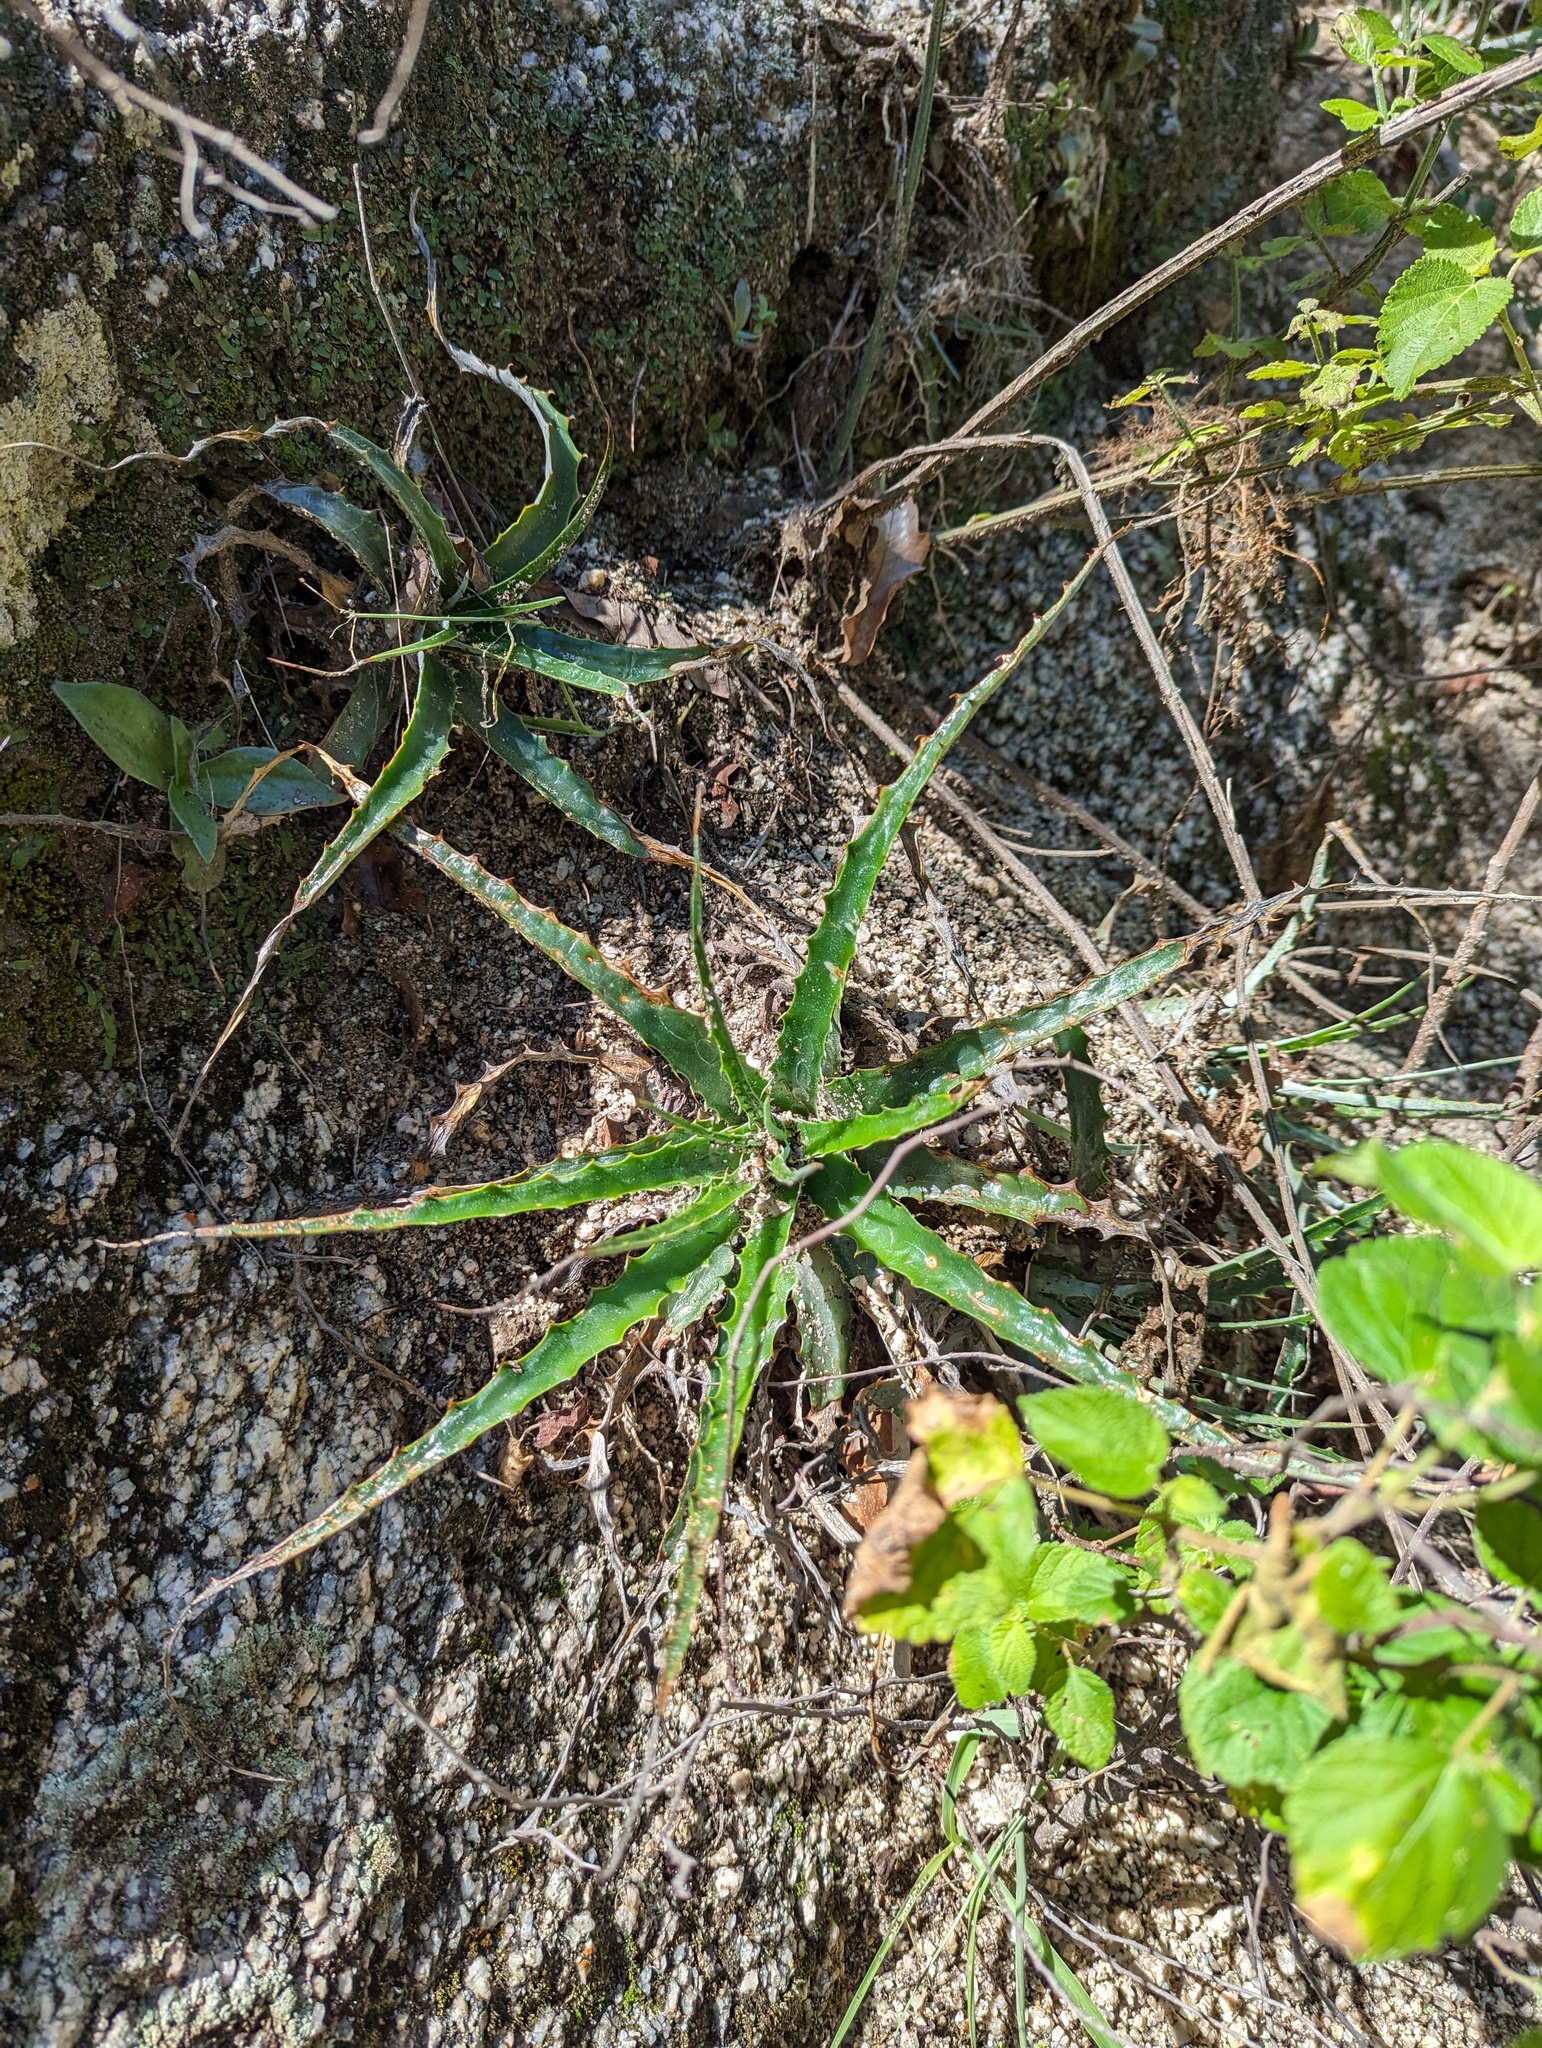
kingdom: Plantae
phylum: Tracheophyta
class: Liliopsida
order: Poales
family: Bromeliaceae
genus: Hechtia
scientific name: Hechtia montana
